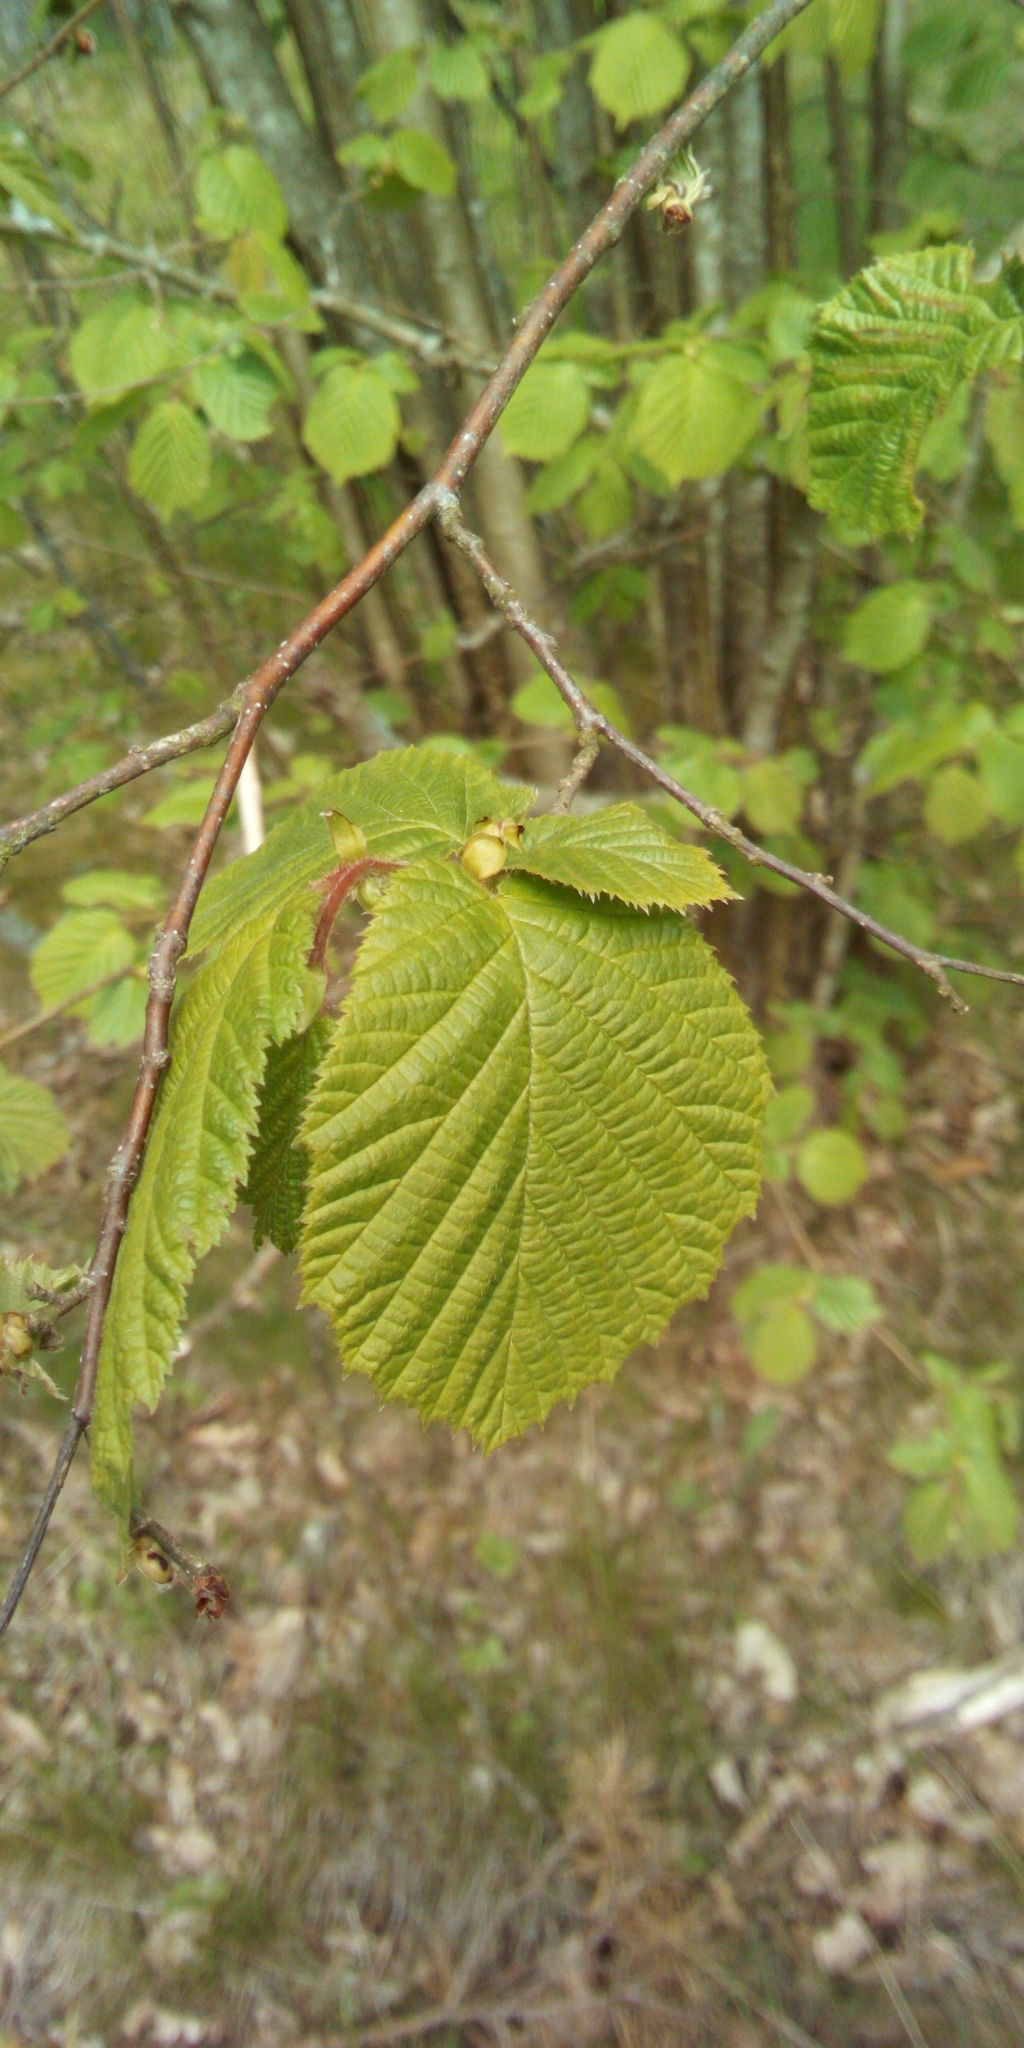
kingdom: Plantae
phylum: Tracheophyta
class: Magnoliopsida
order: Fagales
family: Betulaceae
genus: Corylus
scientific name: Corylus avellana
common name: European hazel
